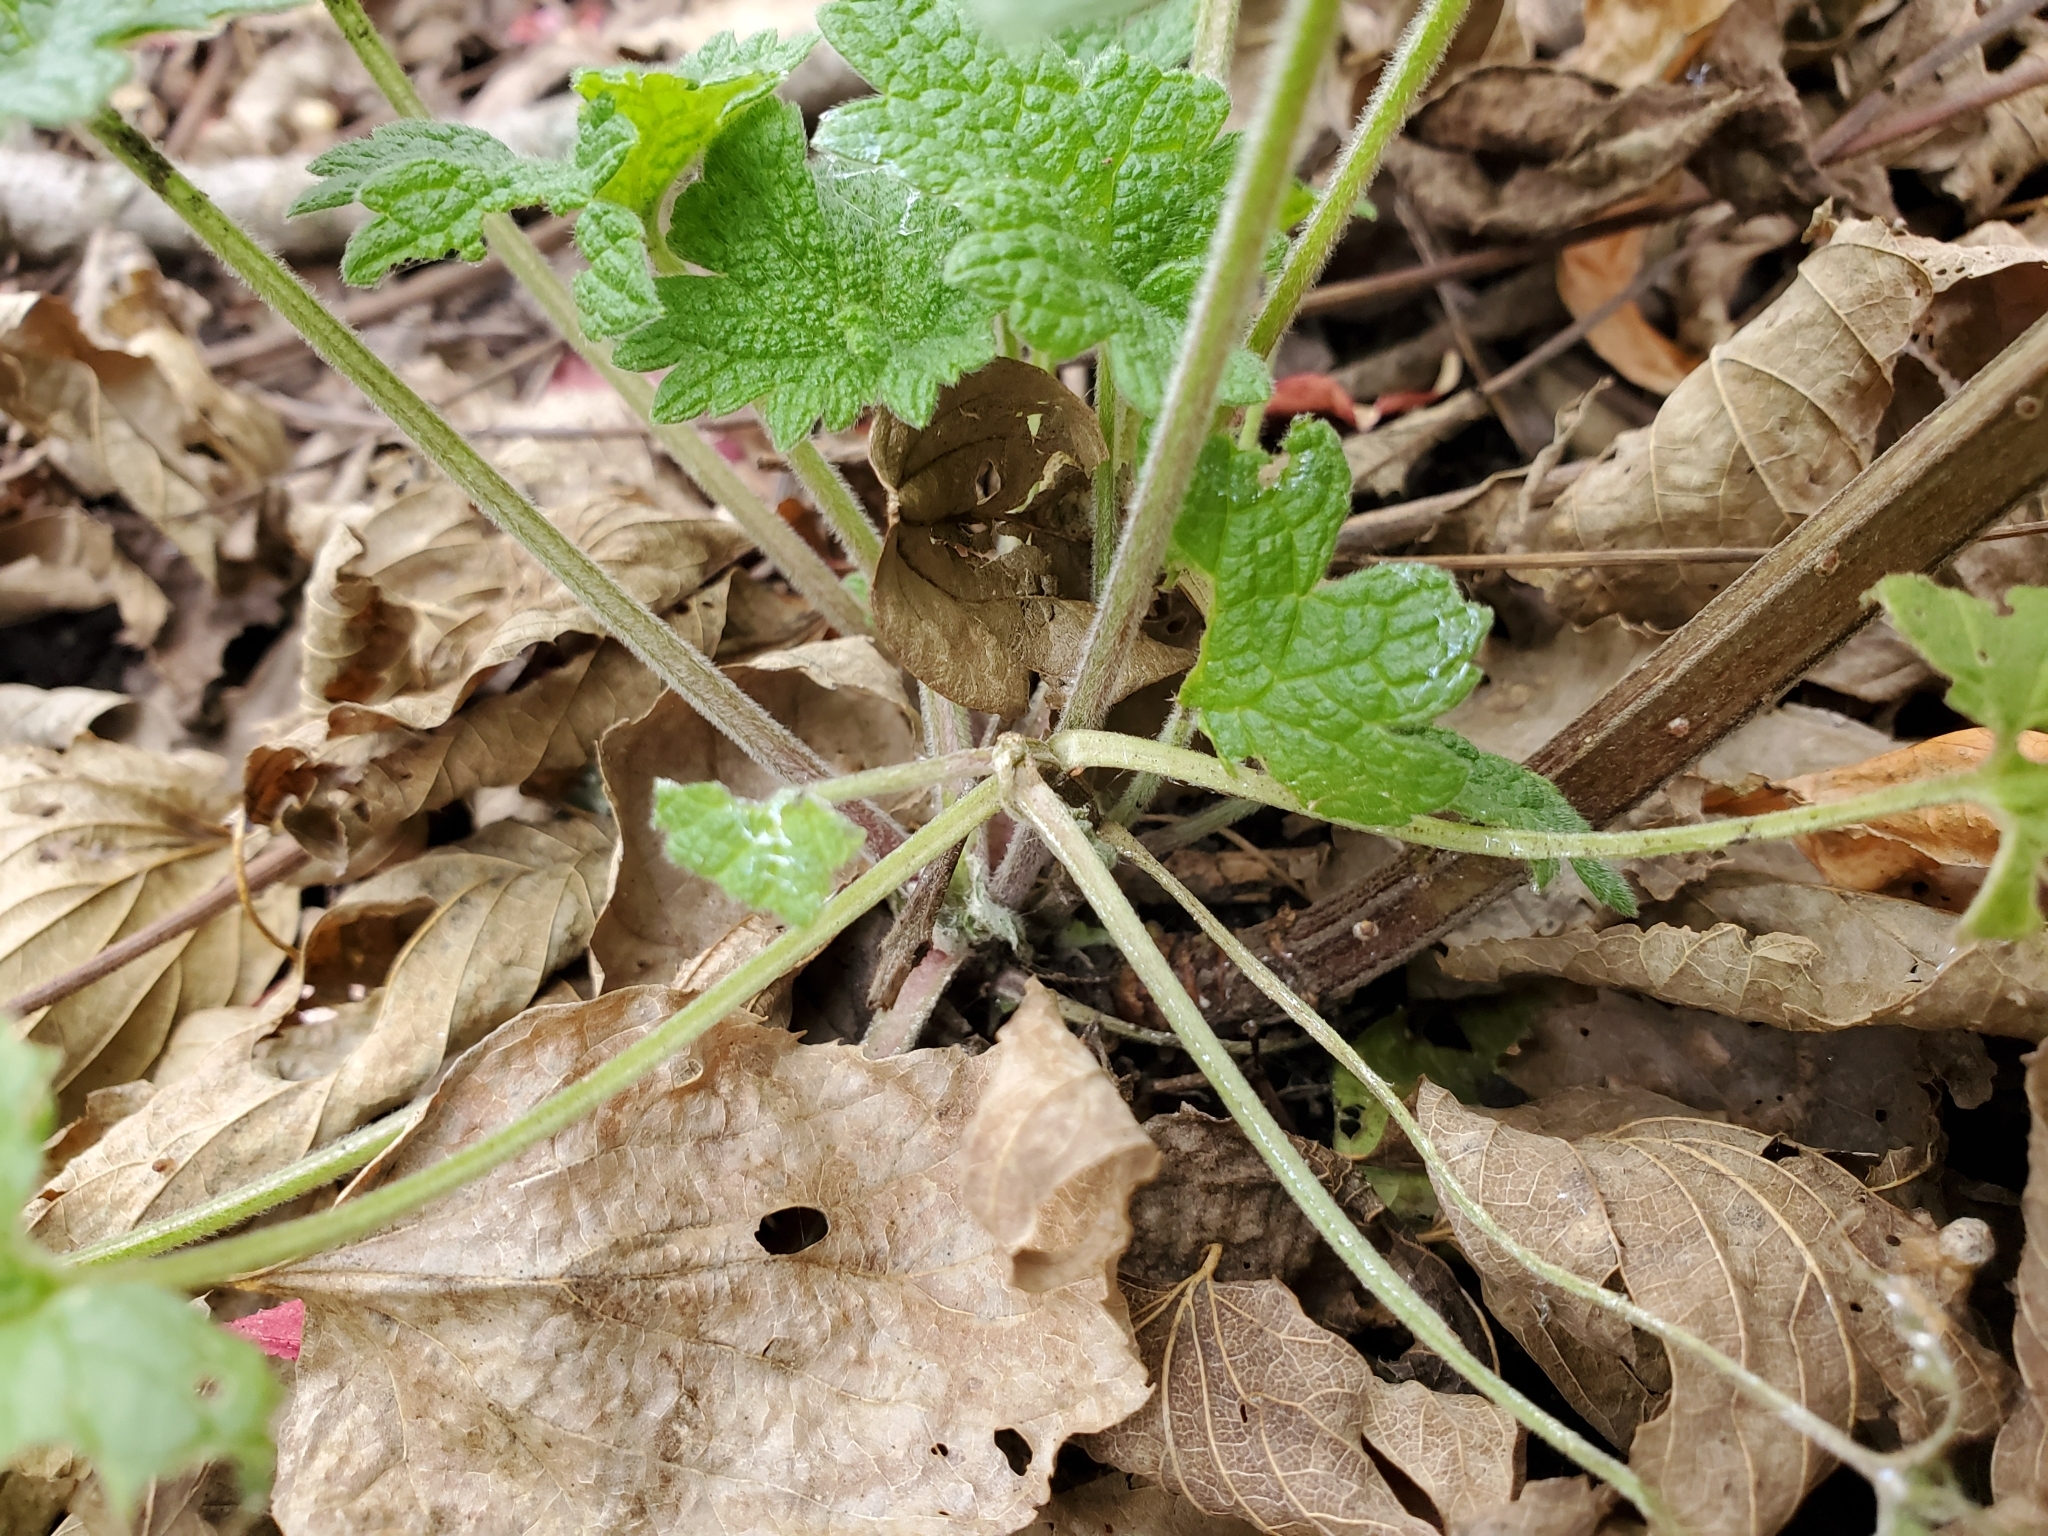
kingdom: Plantae
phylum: Tracheophyta
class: Magnoliopsida
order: Lamiales
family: Lamiaceae
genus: Leonurus
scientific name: Leonurus cardiaca
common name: Motherwort
